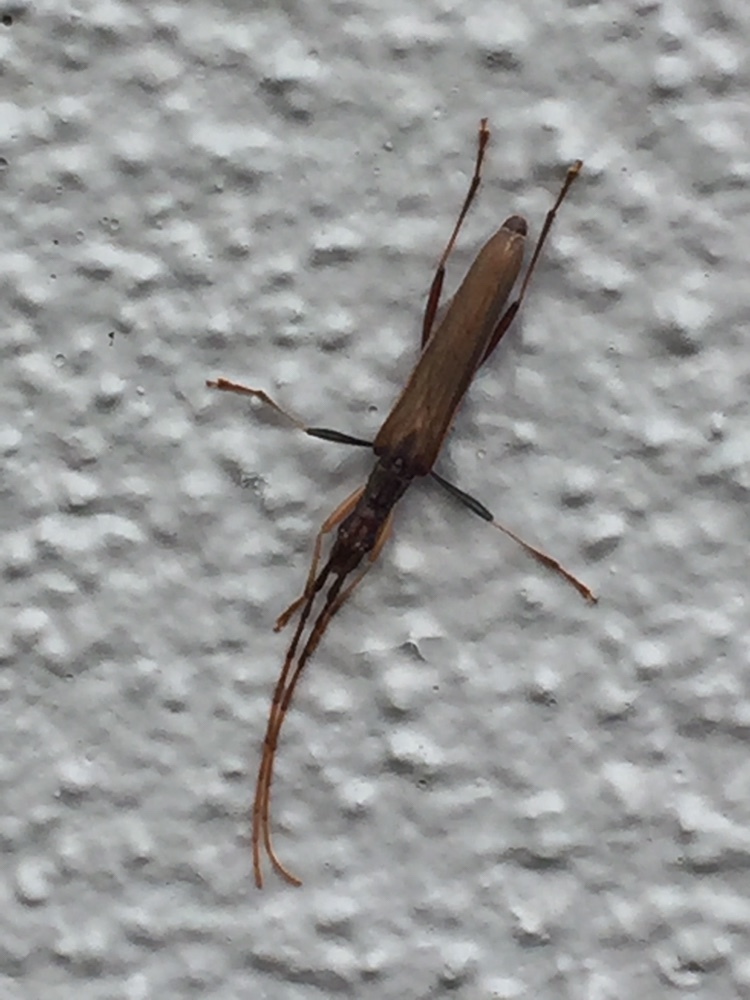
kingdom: Animalia
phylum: Arthropoda
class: Insecta
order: Coleoptera
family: Cerambycidae
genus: Stenopotes
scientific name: Stenopotes pallidus
